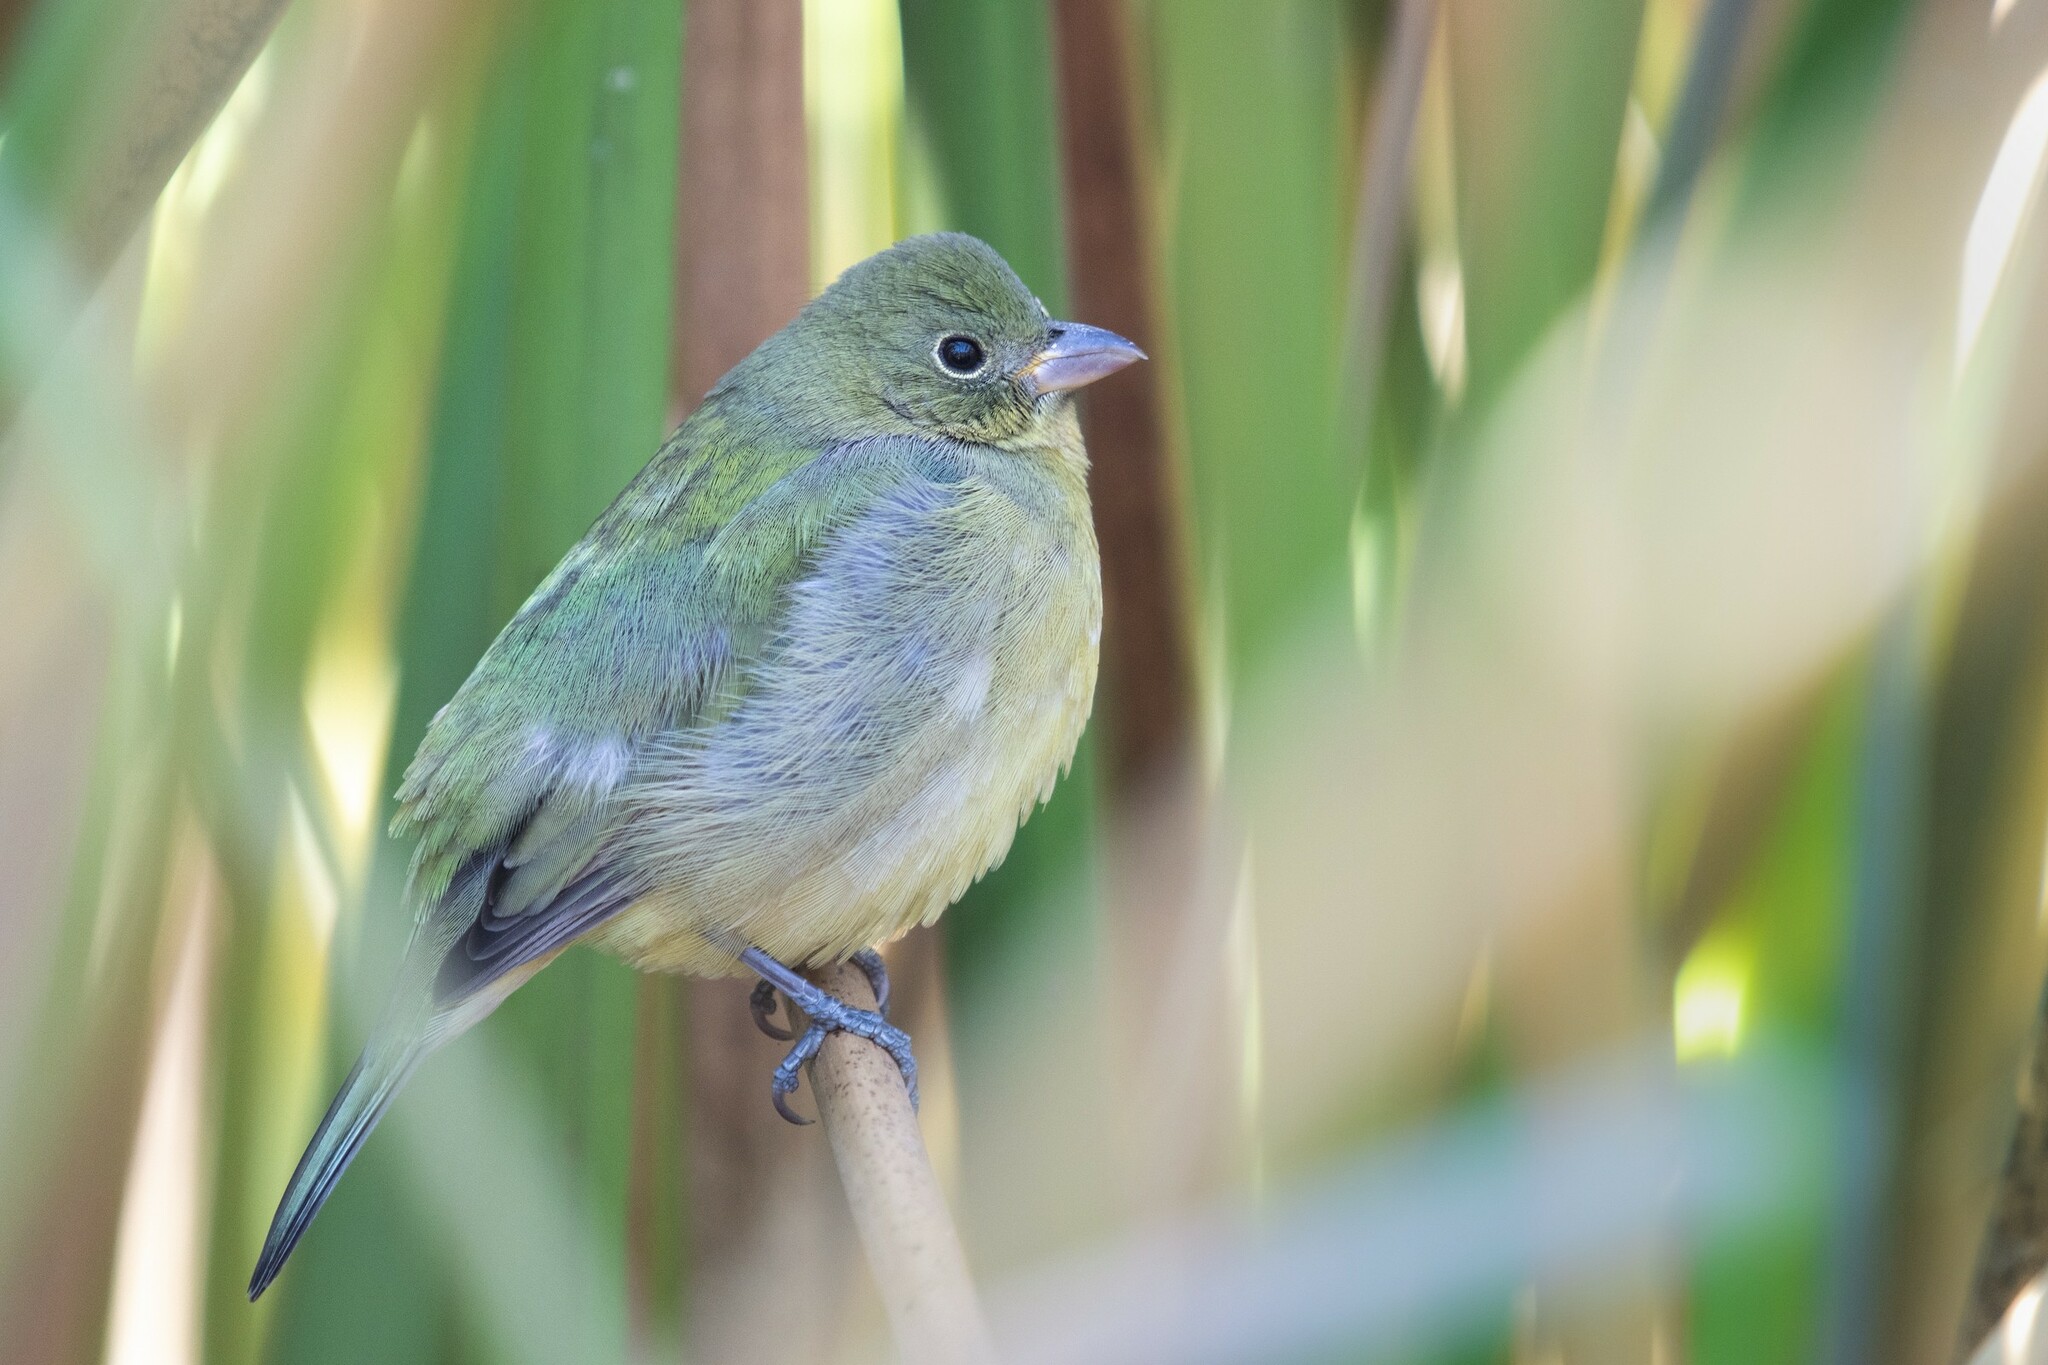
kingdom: Animalia
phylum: Chordata
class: Aves
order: Passeriformes
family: Cardinalidae
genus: Passerina
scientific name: Passerina ciris
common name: Painted bunting
